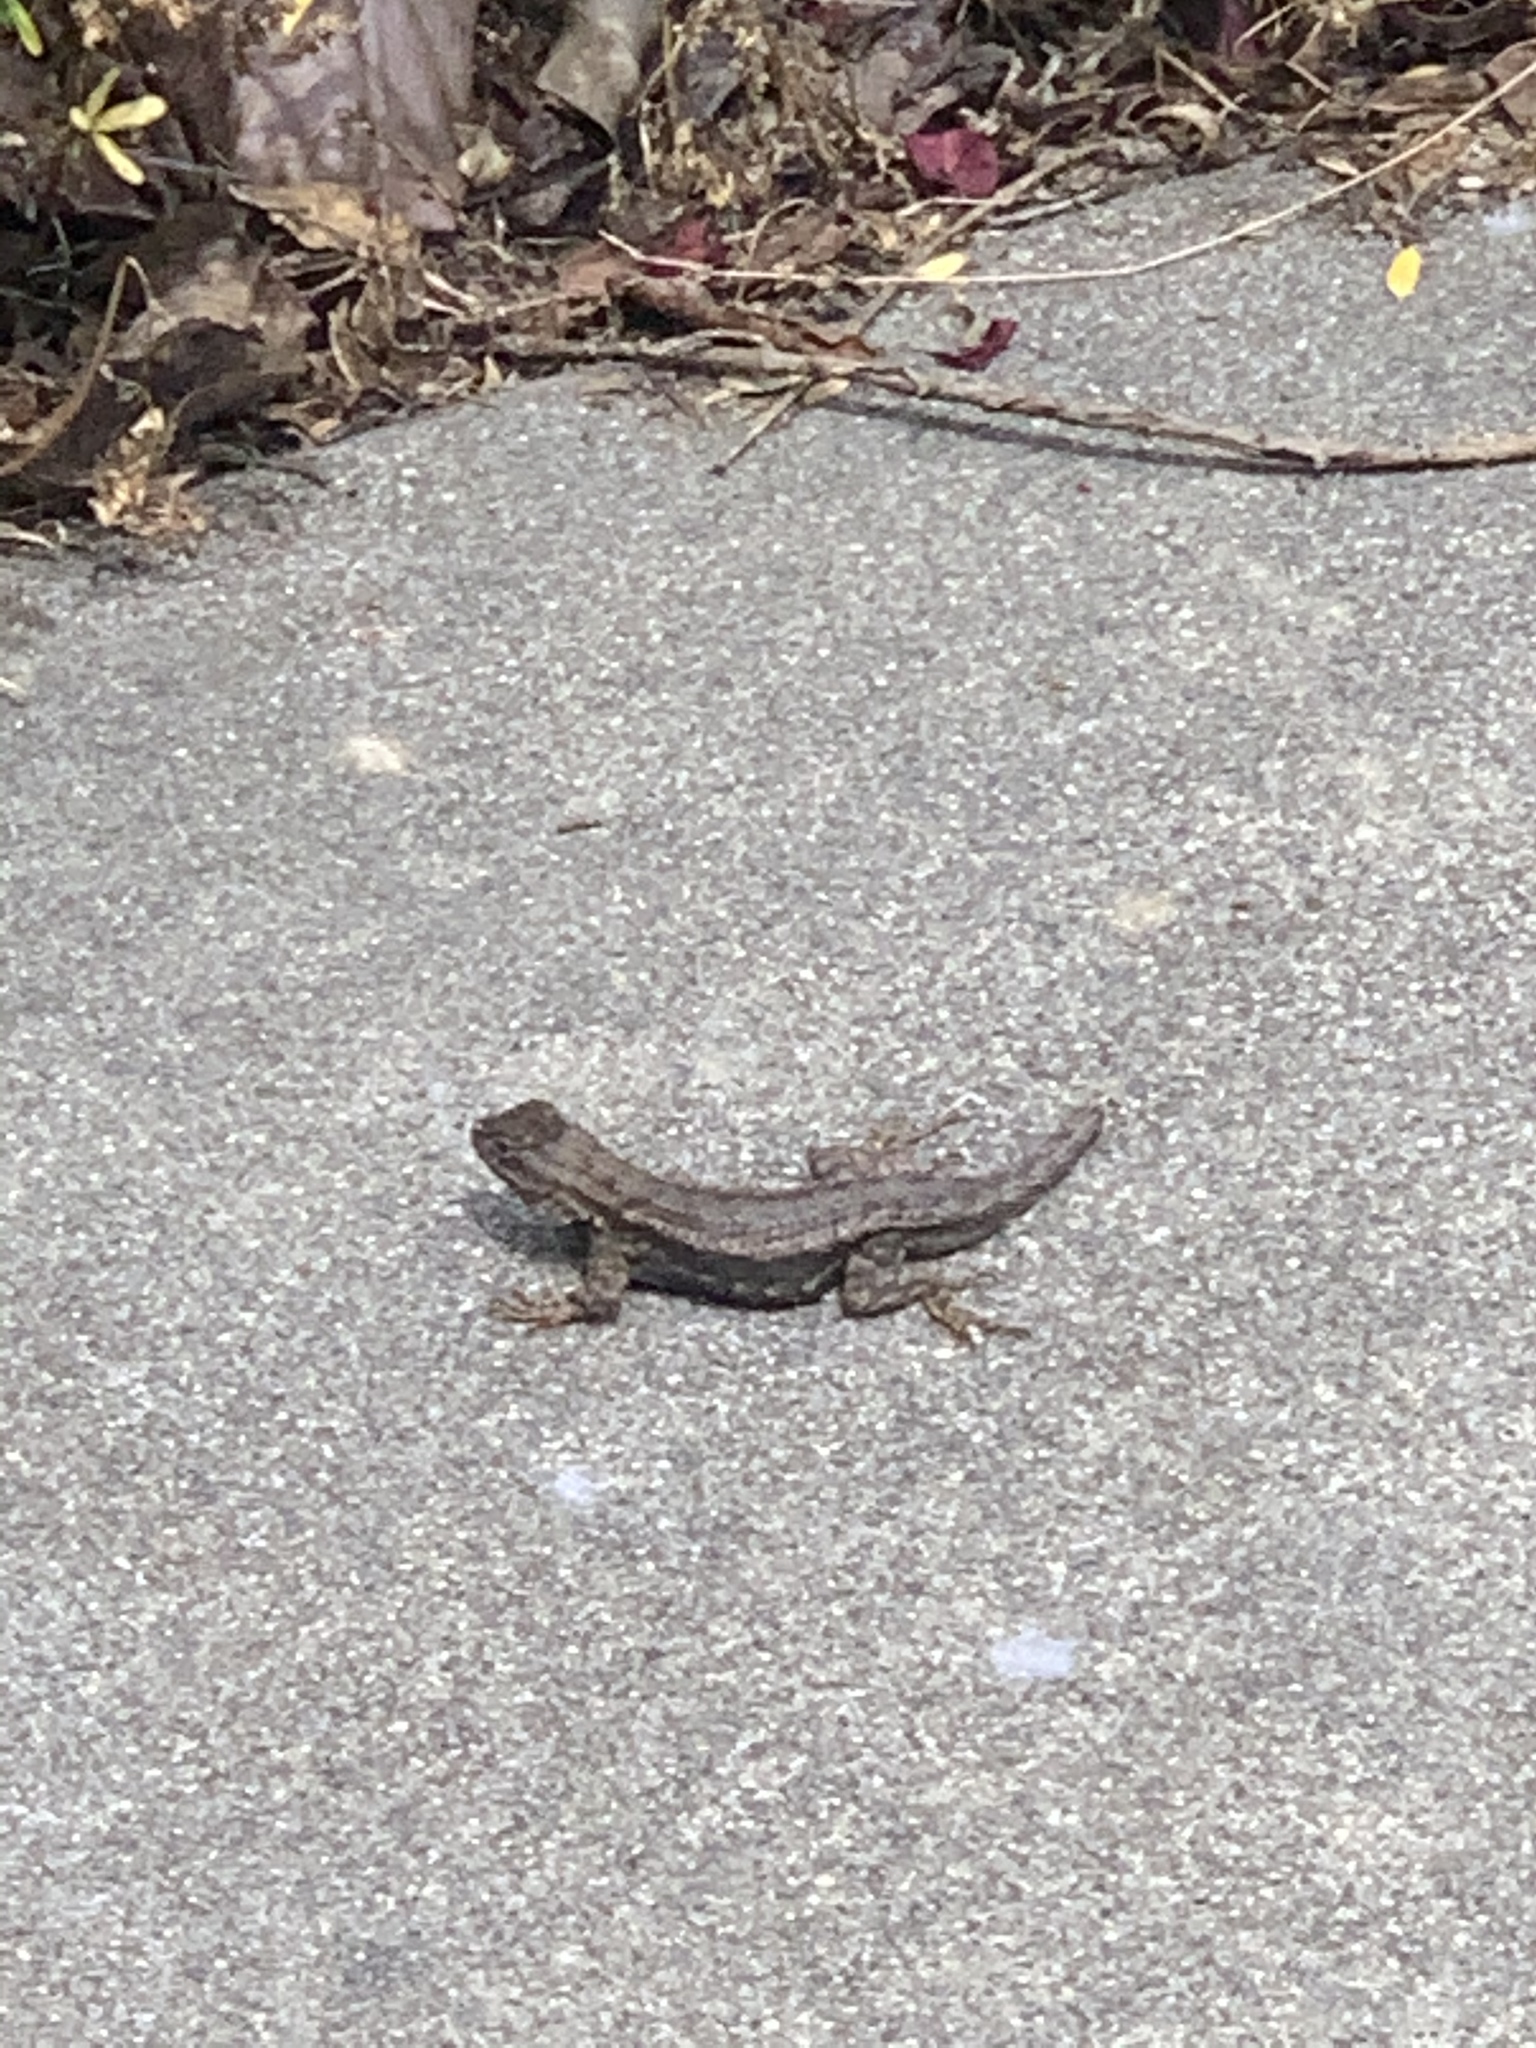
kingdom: Animalia
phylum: Chordata
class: Squamata
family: Phrynosomatidae
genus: Sceloporus
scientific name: Sceloporus occidentalis
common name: Western fence lizard
